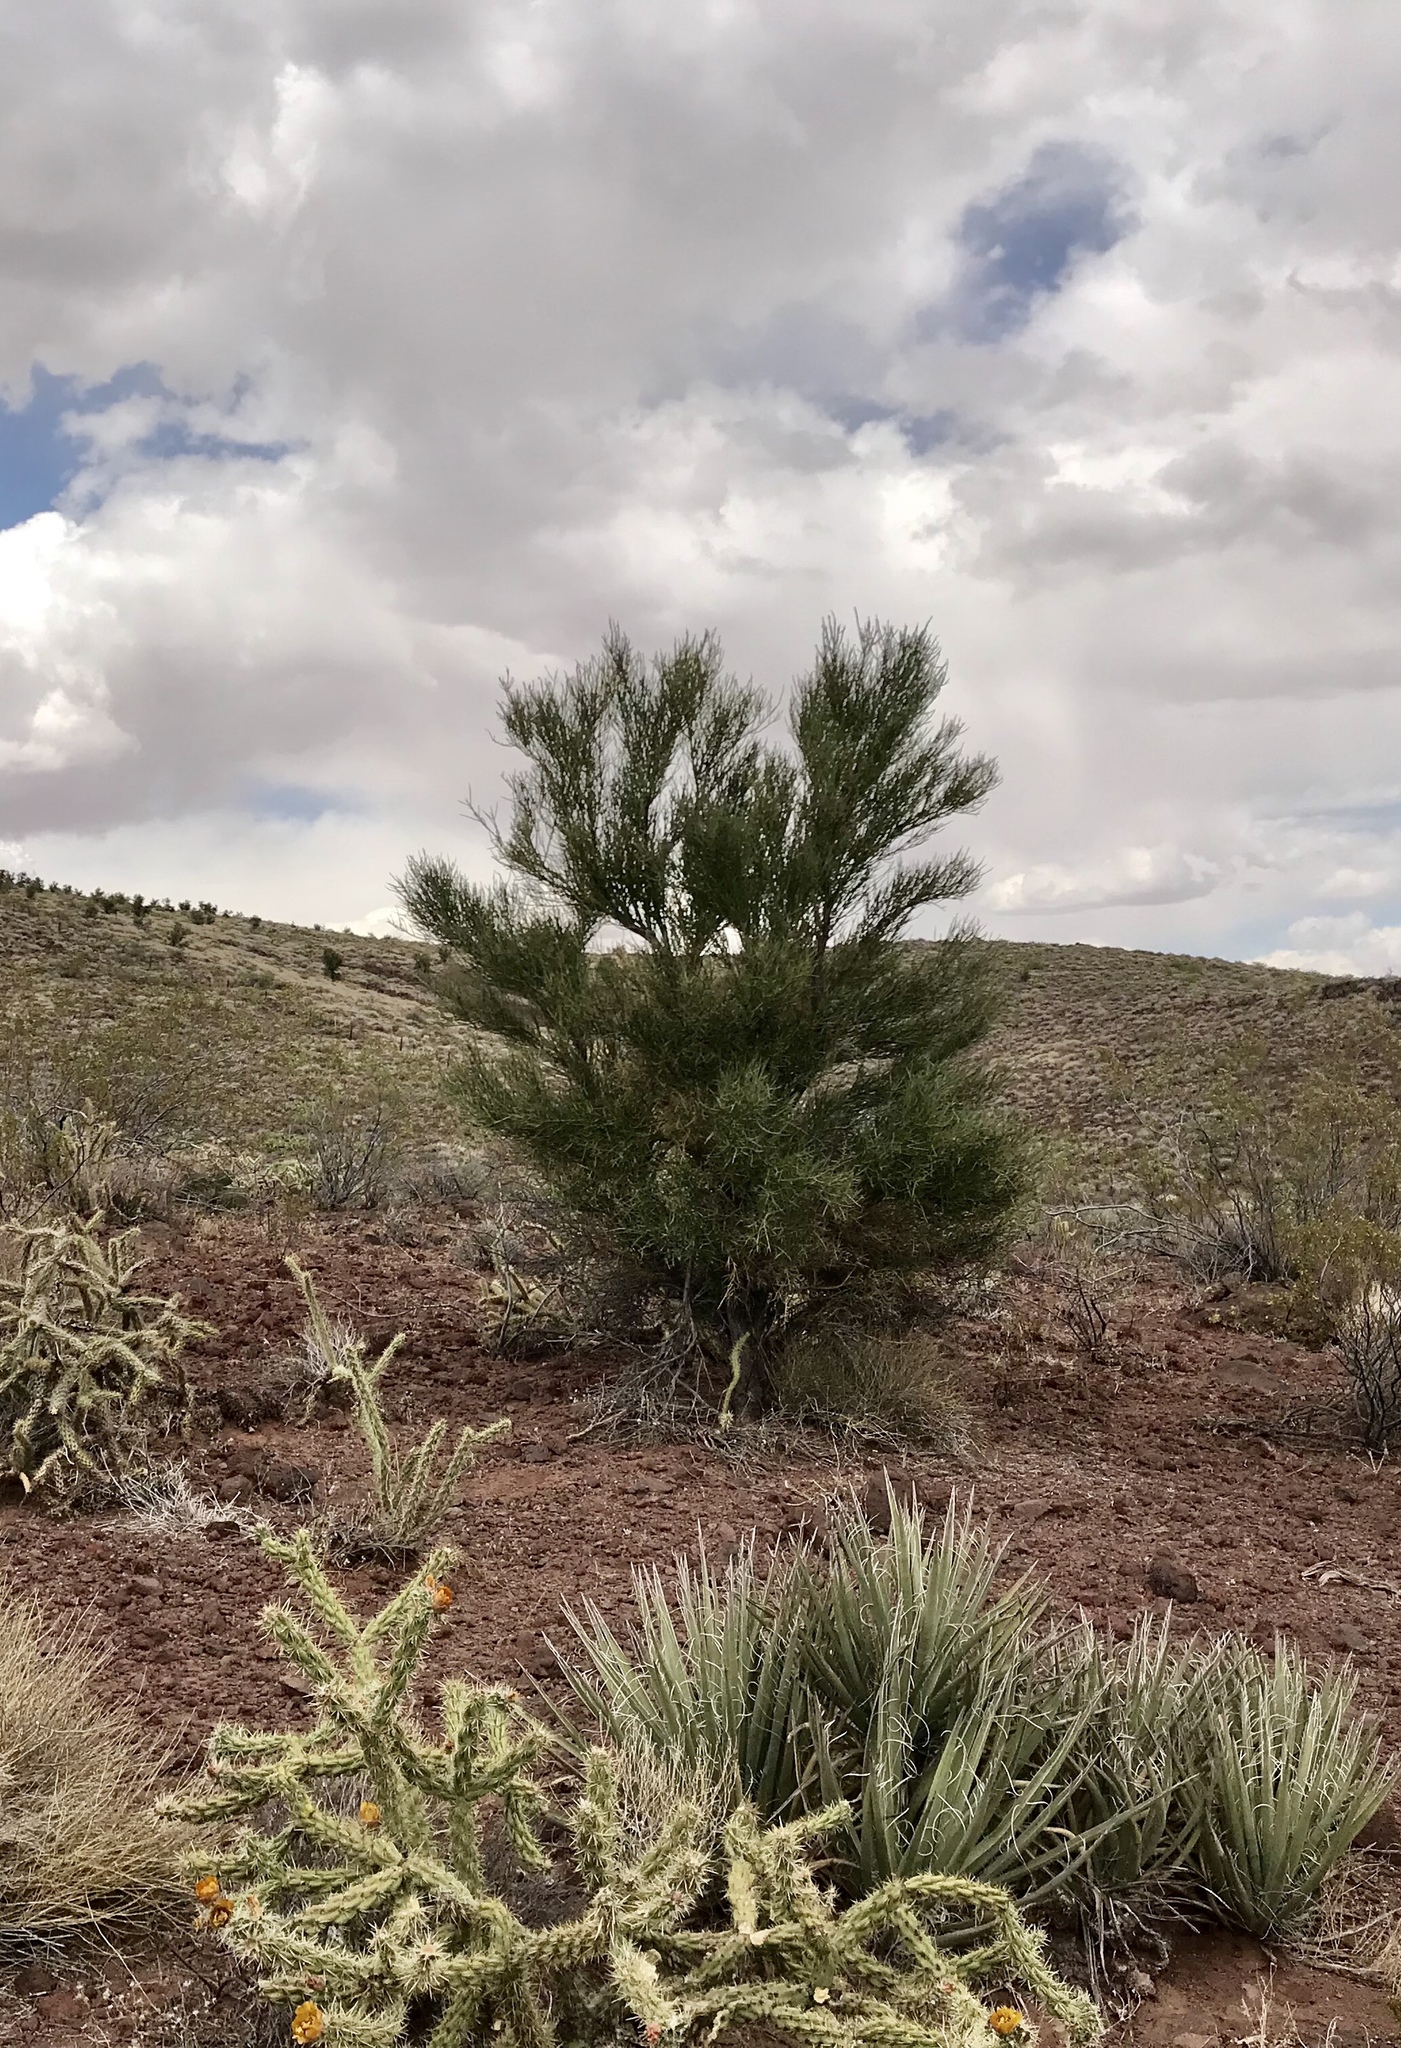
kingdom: Plantae
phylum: Tracheophyta
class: Magnoliopsida
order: Celastrales
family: Celastraceae
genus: Canotia
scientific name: Canotia holacantha
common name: Crucifixion thorns
